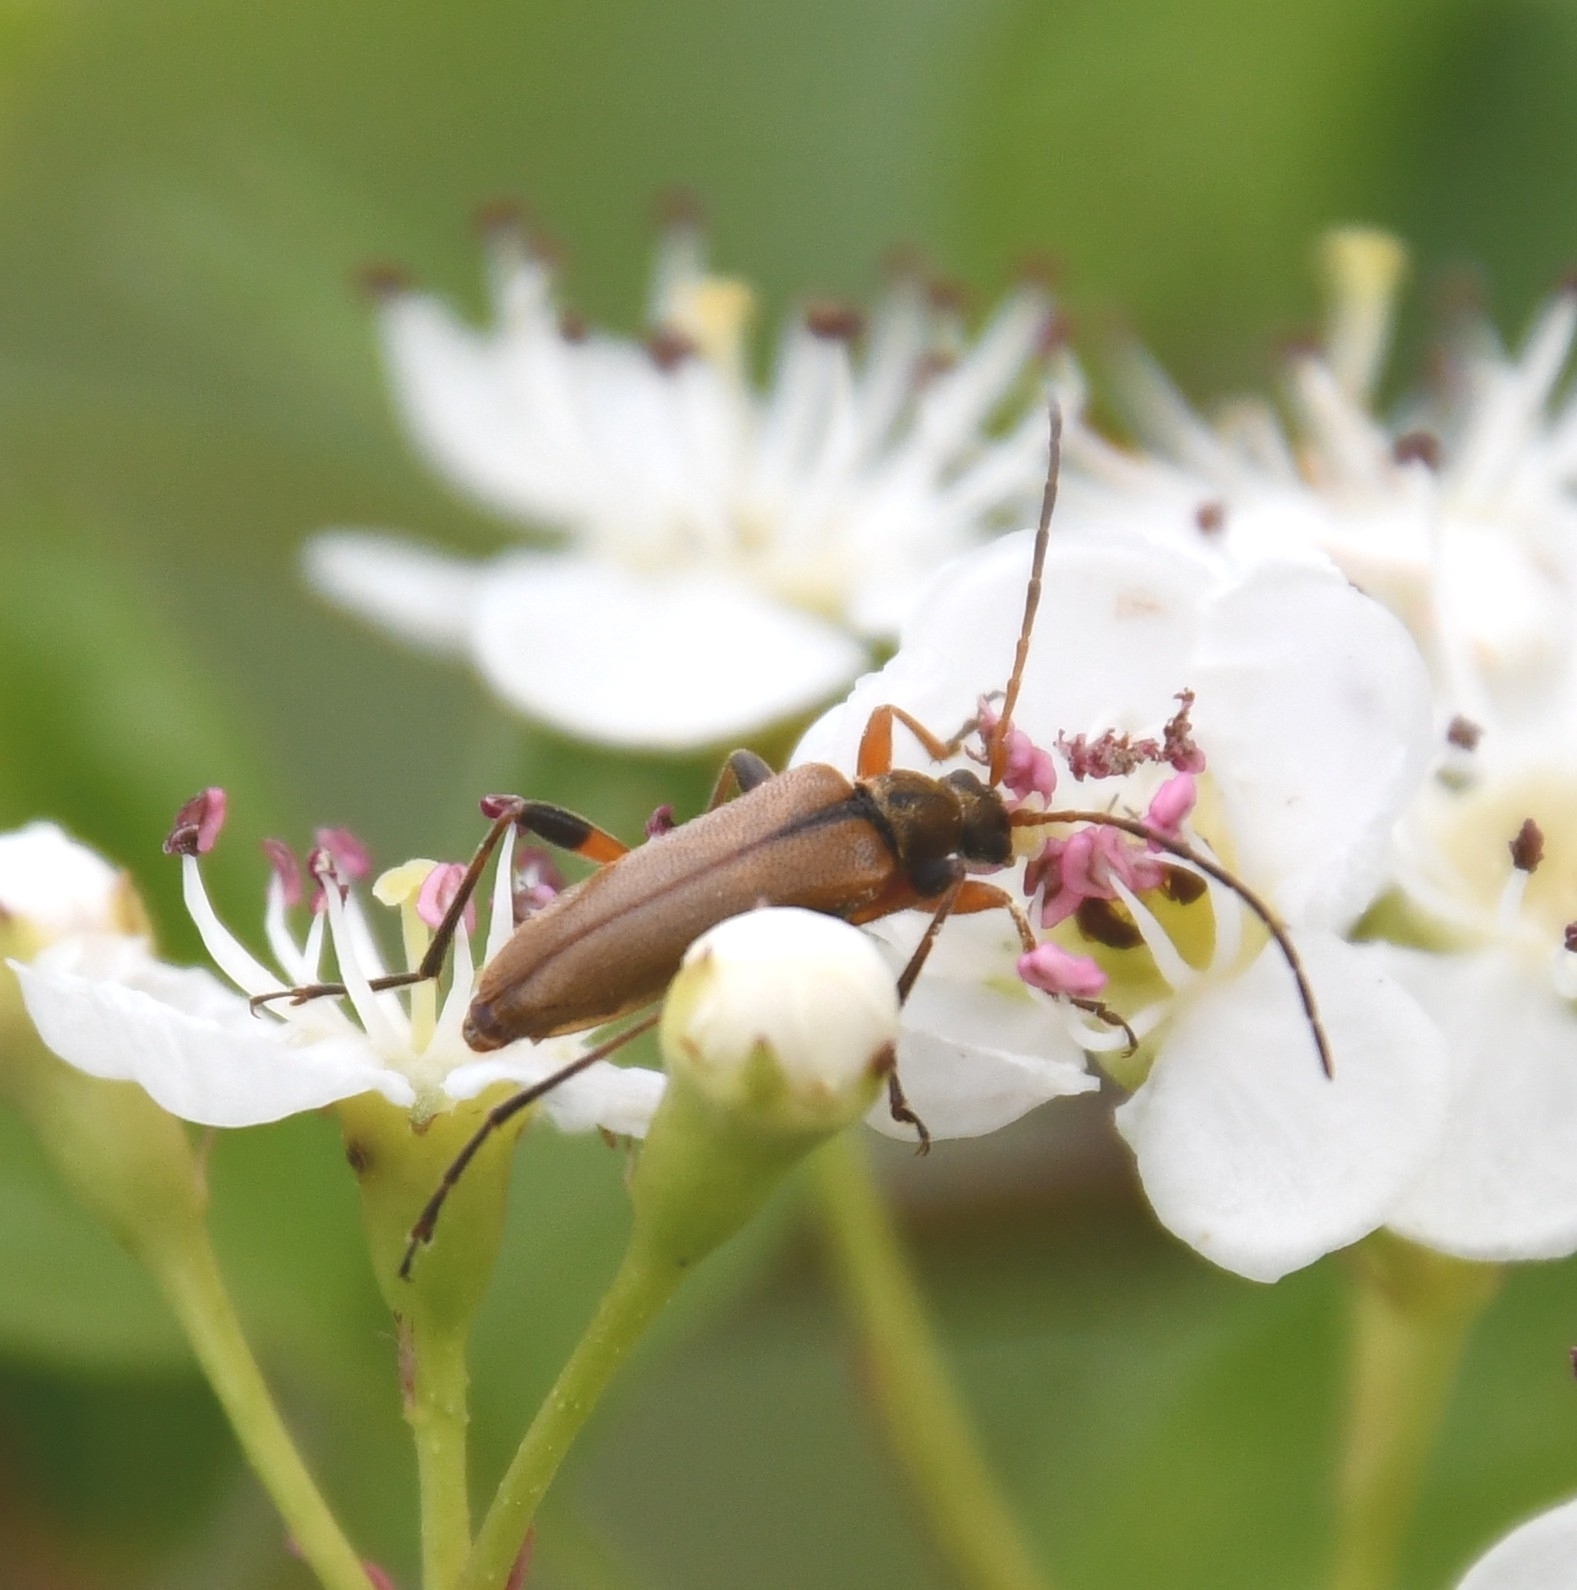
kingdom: Animalia
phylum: Arthropoda
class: Insecta
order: Coleoptera
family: Cerambycidae
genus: Cortodera
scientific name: Cortodera humeralis
